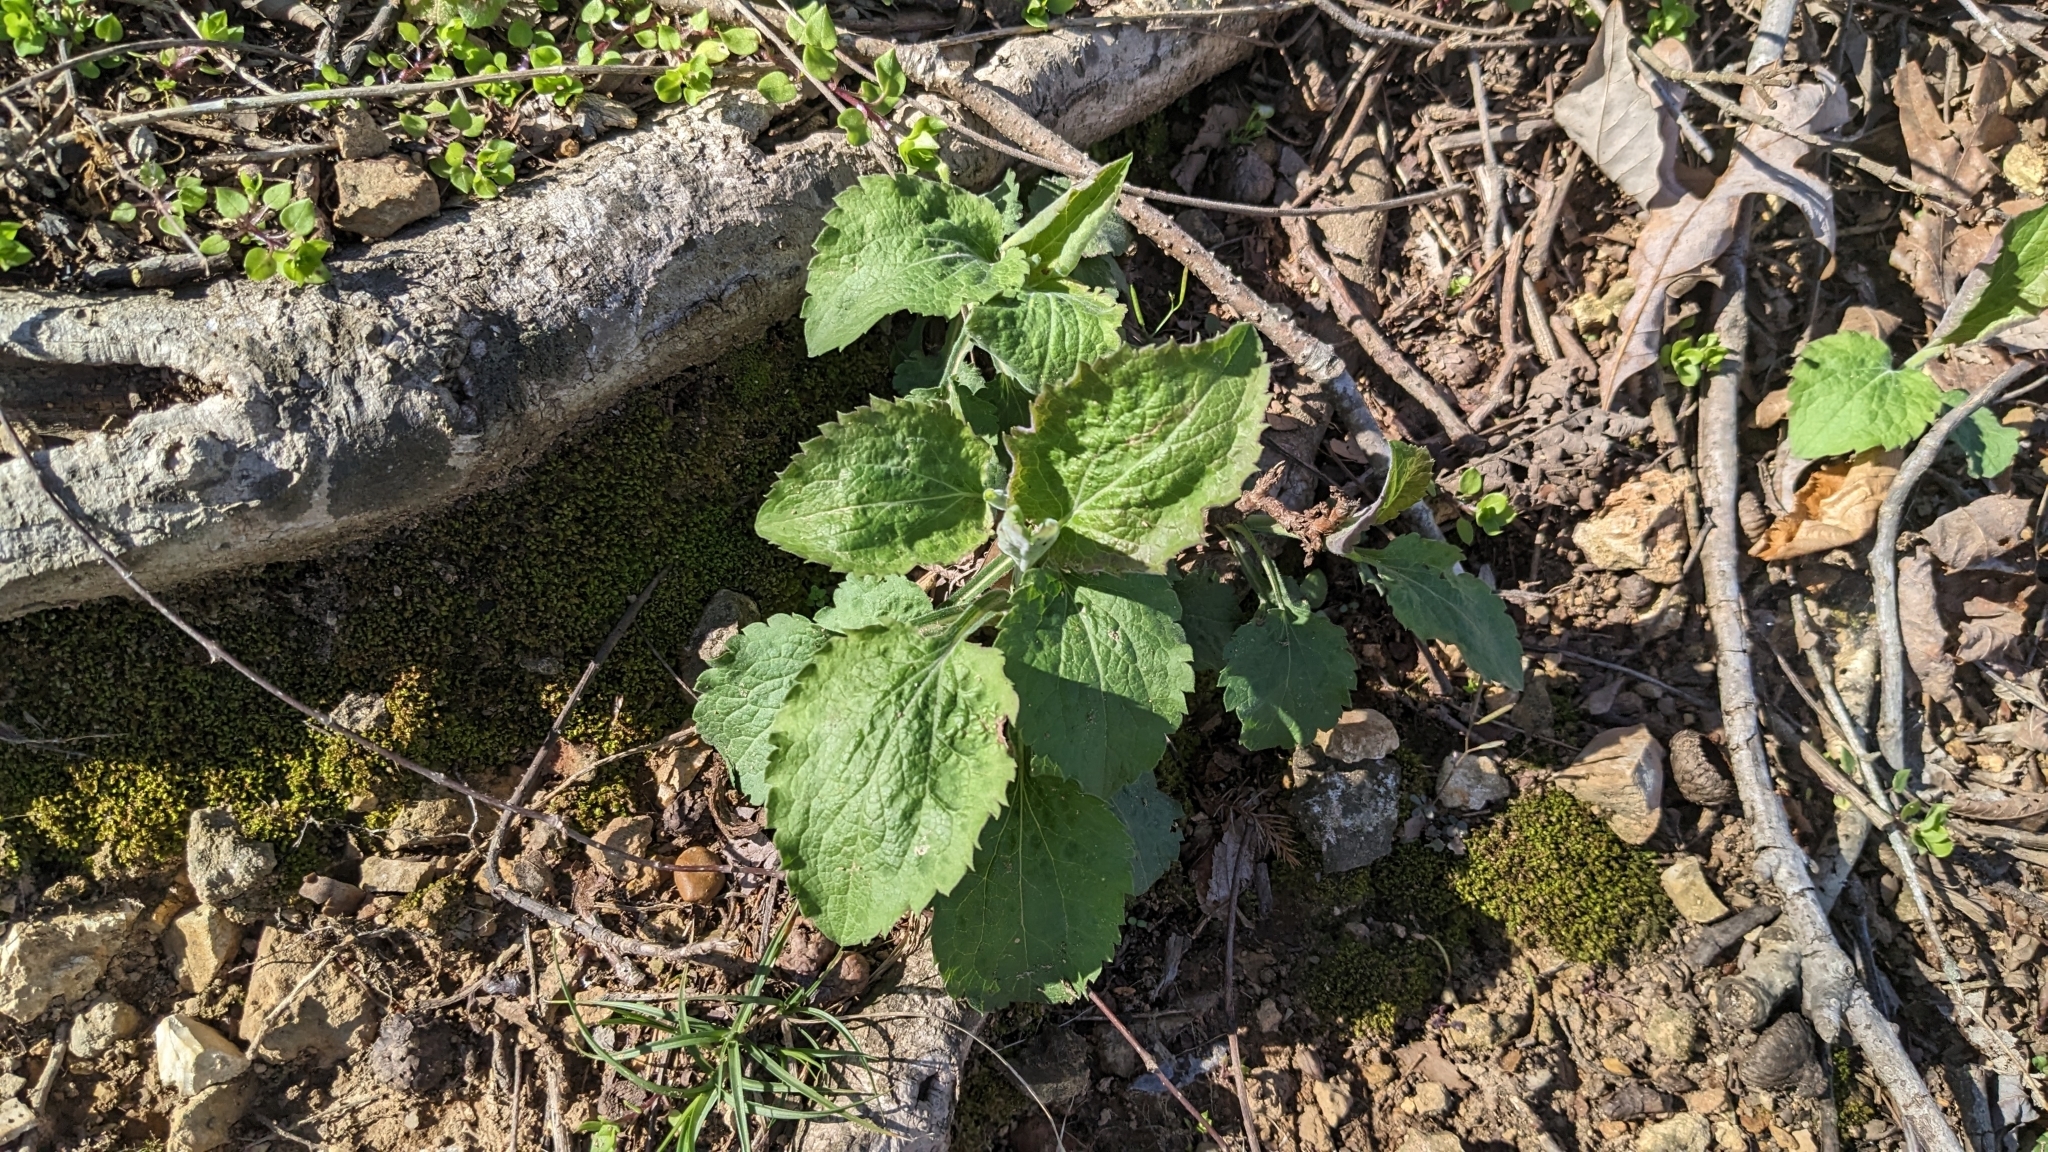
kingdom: Plantae
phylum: Tracheophyta
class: Magnoliopsida
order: Asterales
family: Asteraceae
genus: Solidago
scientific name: Solidago sphacelata
